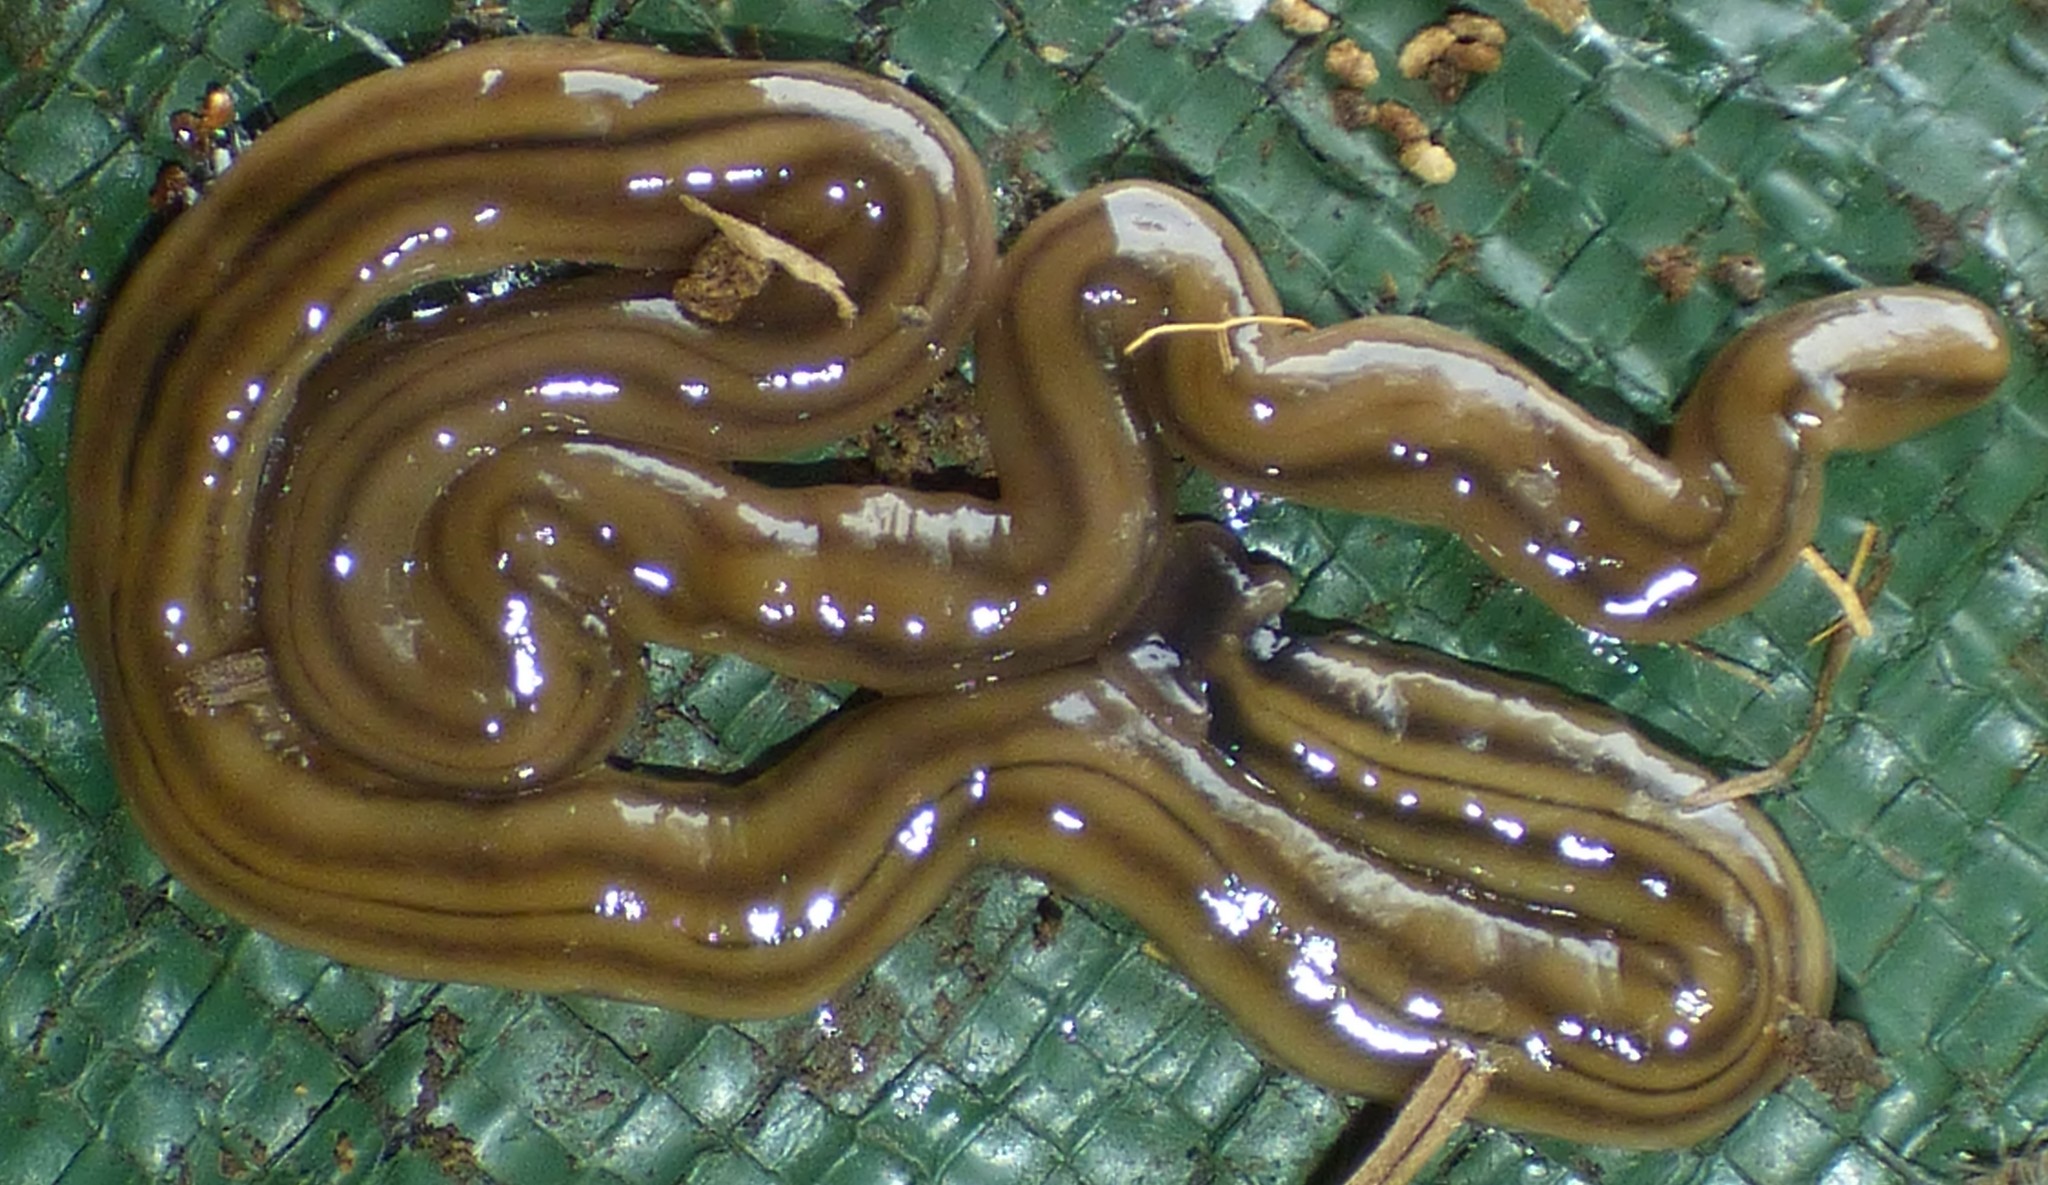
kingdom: Animalia
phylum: Platyhelminthes
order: Tricladida
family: Geoplanidae
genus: Bipalium
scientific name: Bipalium kewense
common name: Hammerhead flatworm
